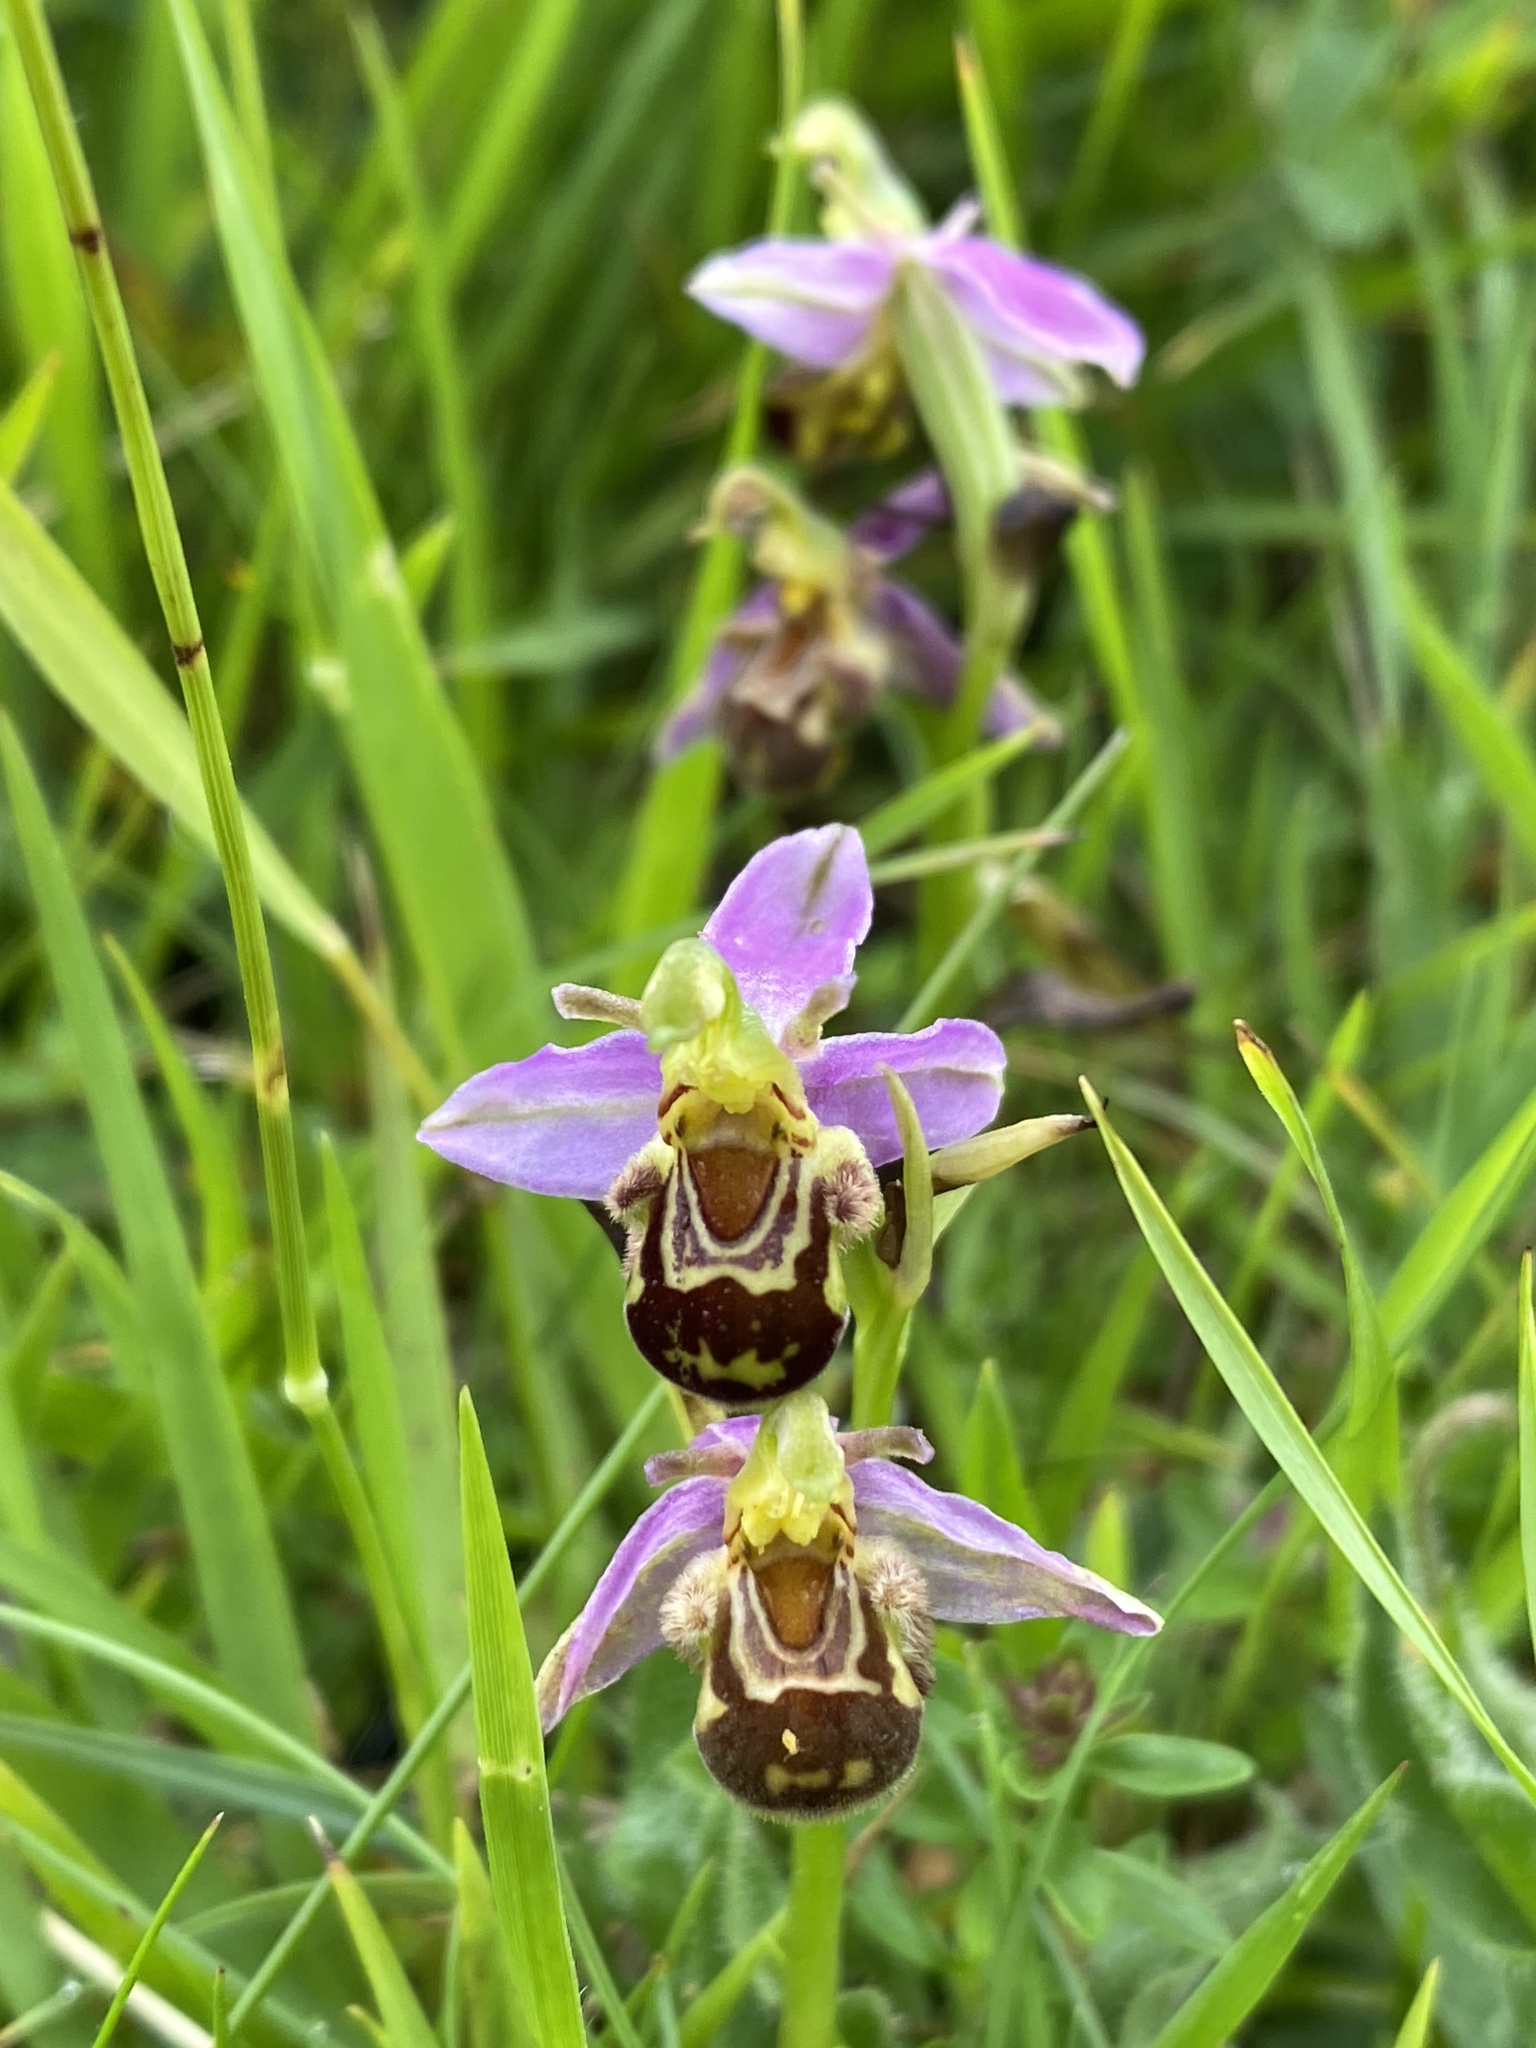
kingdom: Plantae
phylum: Tracheophyta
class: Liliopsida
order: Asparagales
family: Orchidaceae
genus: Ophrys
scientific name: Ophrys apifera
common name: Bee orchid
